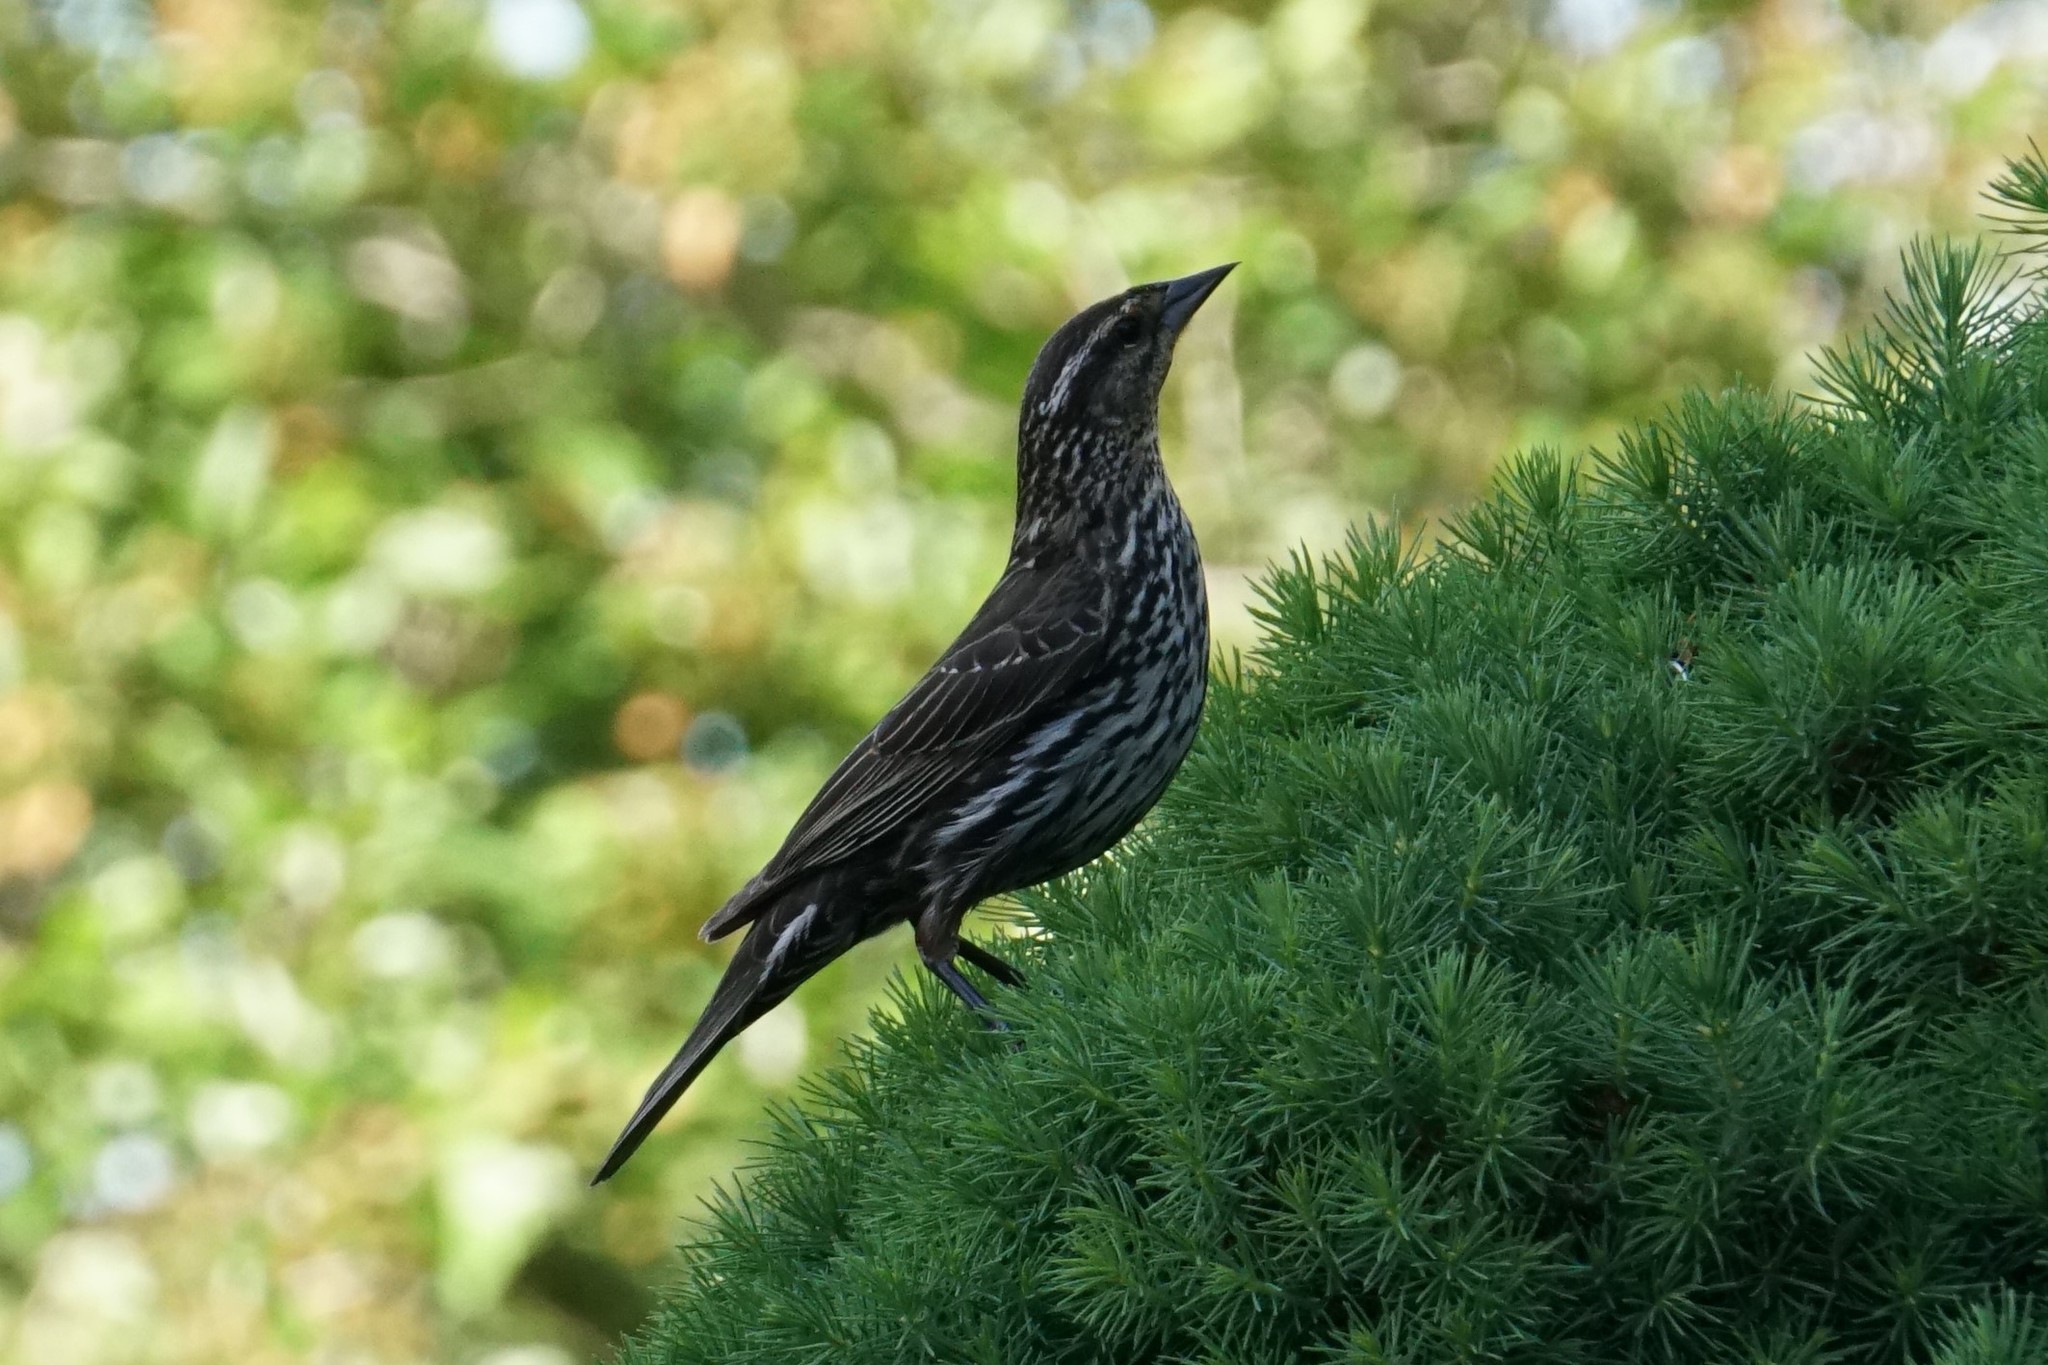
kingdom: Animalia
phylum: Chordata
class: Aves
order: Passeriformes
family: Icteridae
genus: Agelaius
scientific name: Agelaius phoeniceus
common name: Red-winged blackbird
